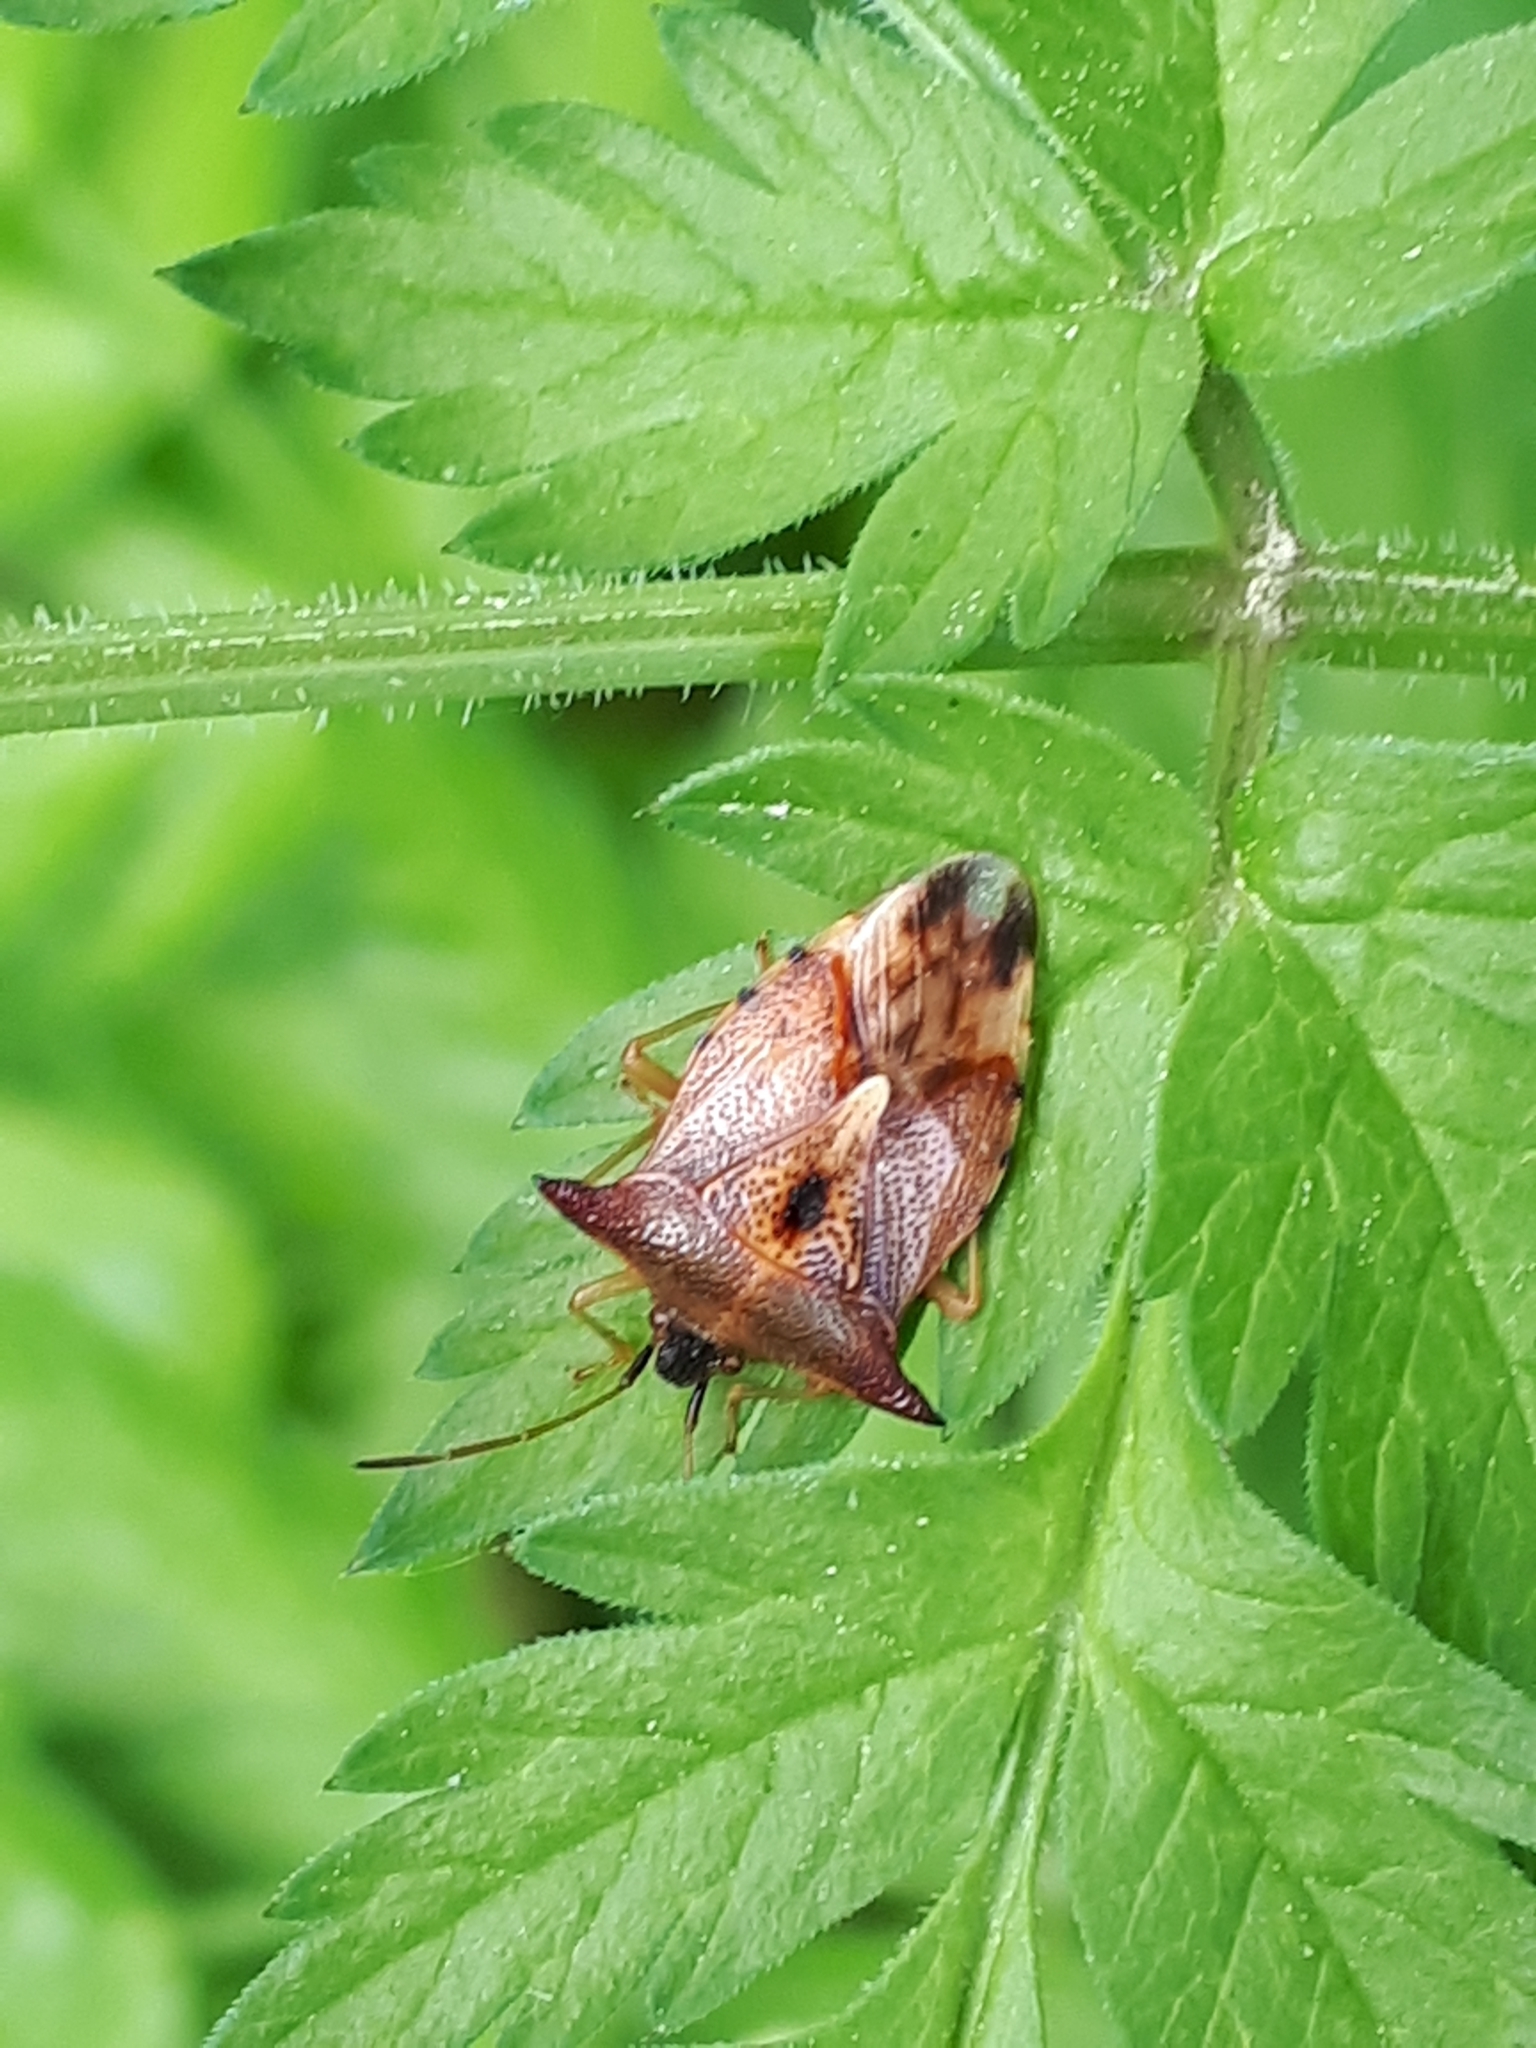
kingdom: Animalia
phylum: Arthropoda
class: Insecta
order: Hemiptera
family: Acanthosomatidae
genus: Elasmucha
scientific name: Elasmucha ferrugata
